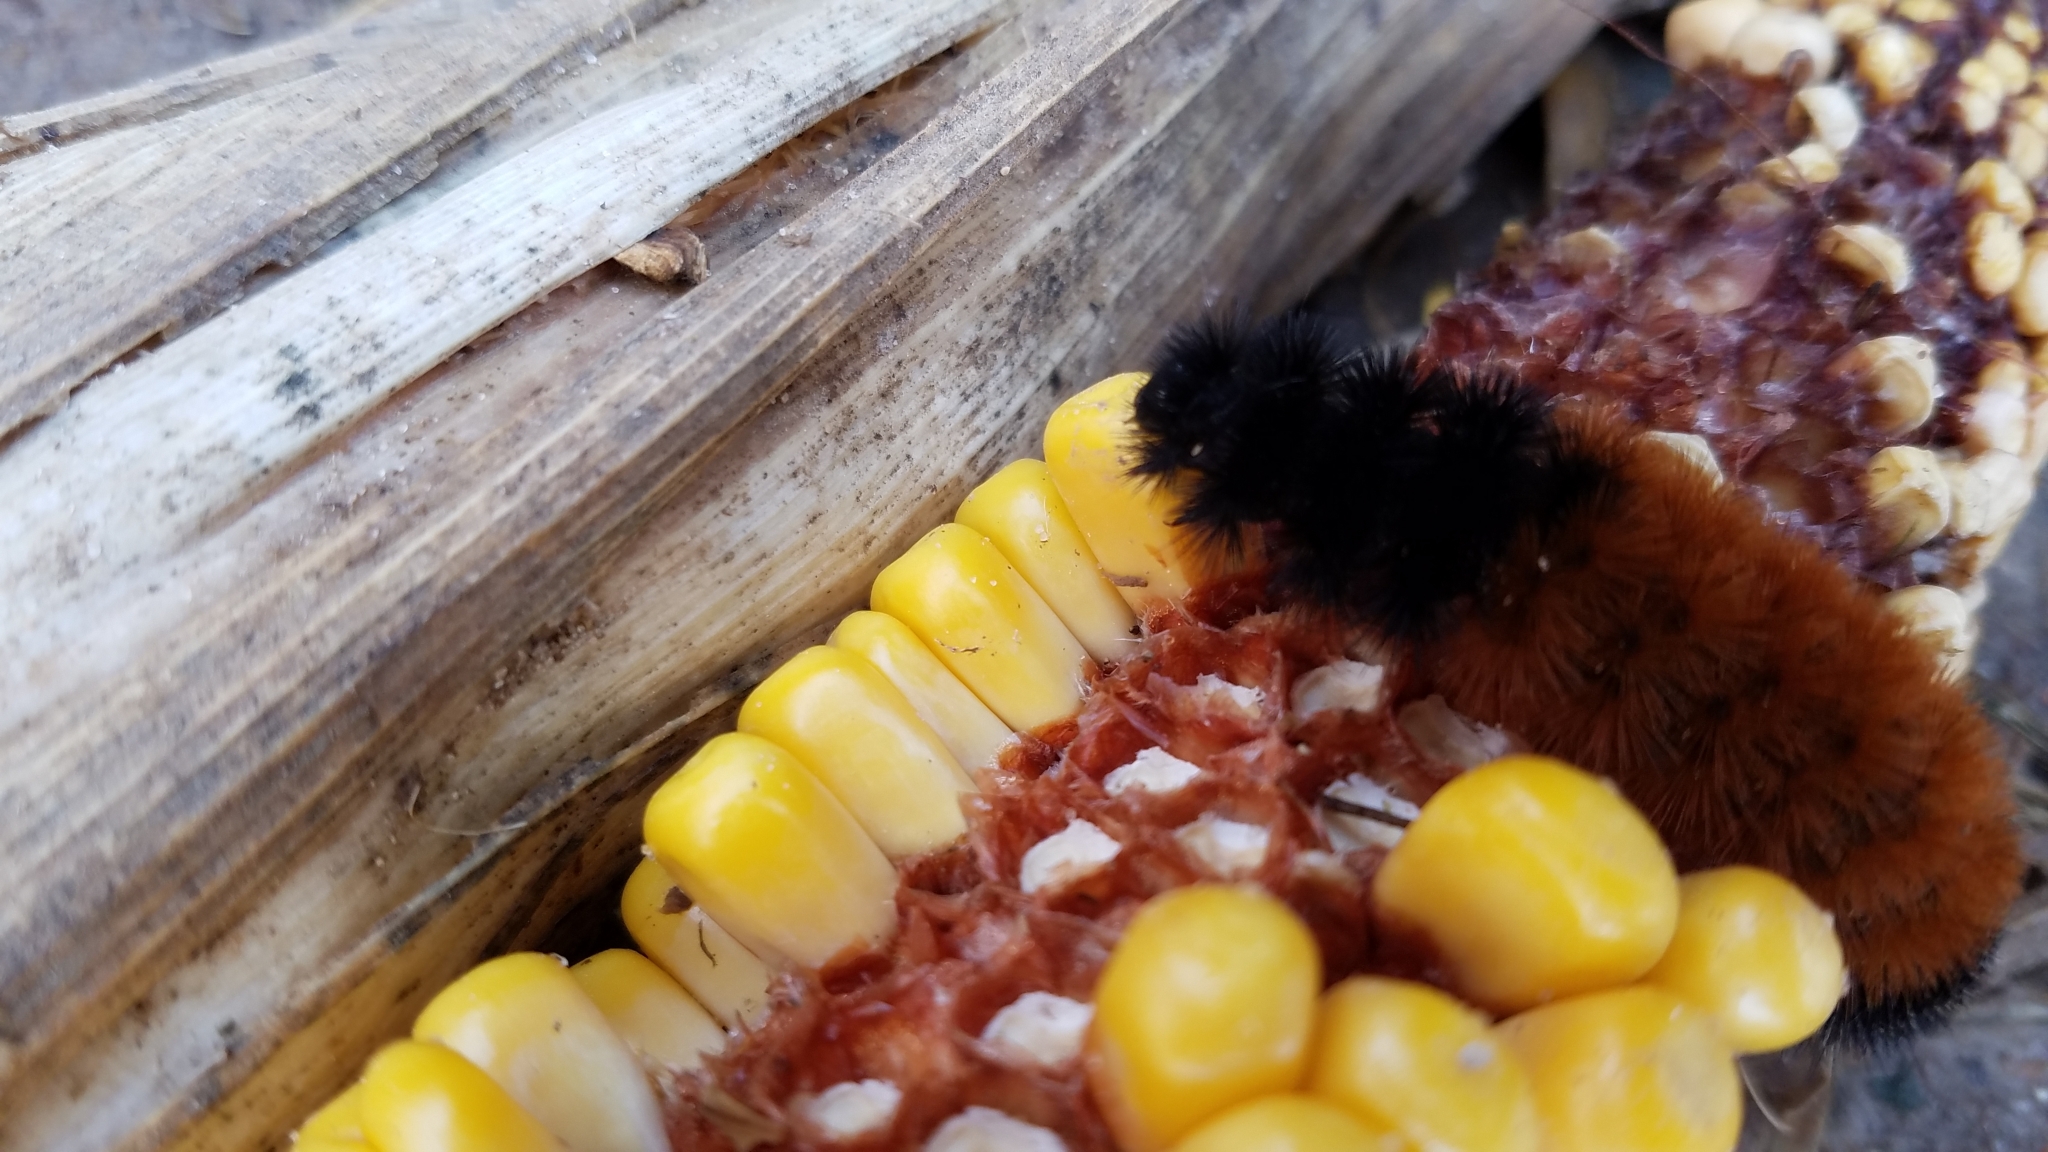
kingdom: Animalia
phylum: Arthropoda
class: Insecta
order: Lepidoptera
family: Erebidae
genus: Pyrrharctia
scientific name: Pyrrharctia isabella
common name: Isabella tiger moth
